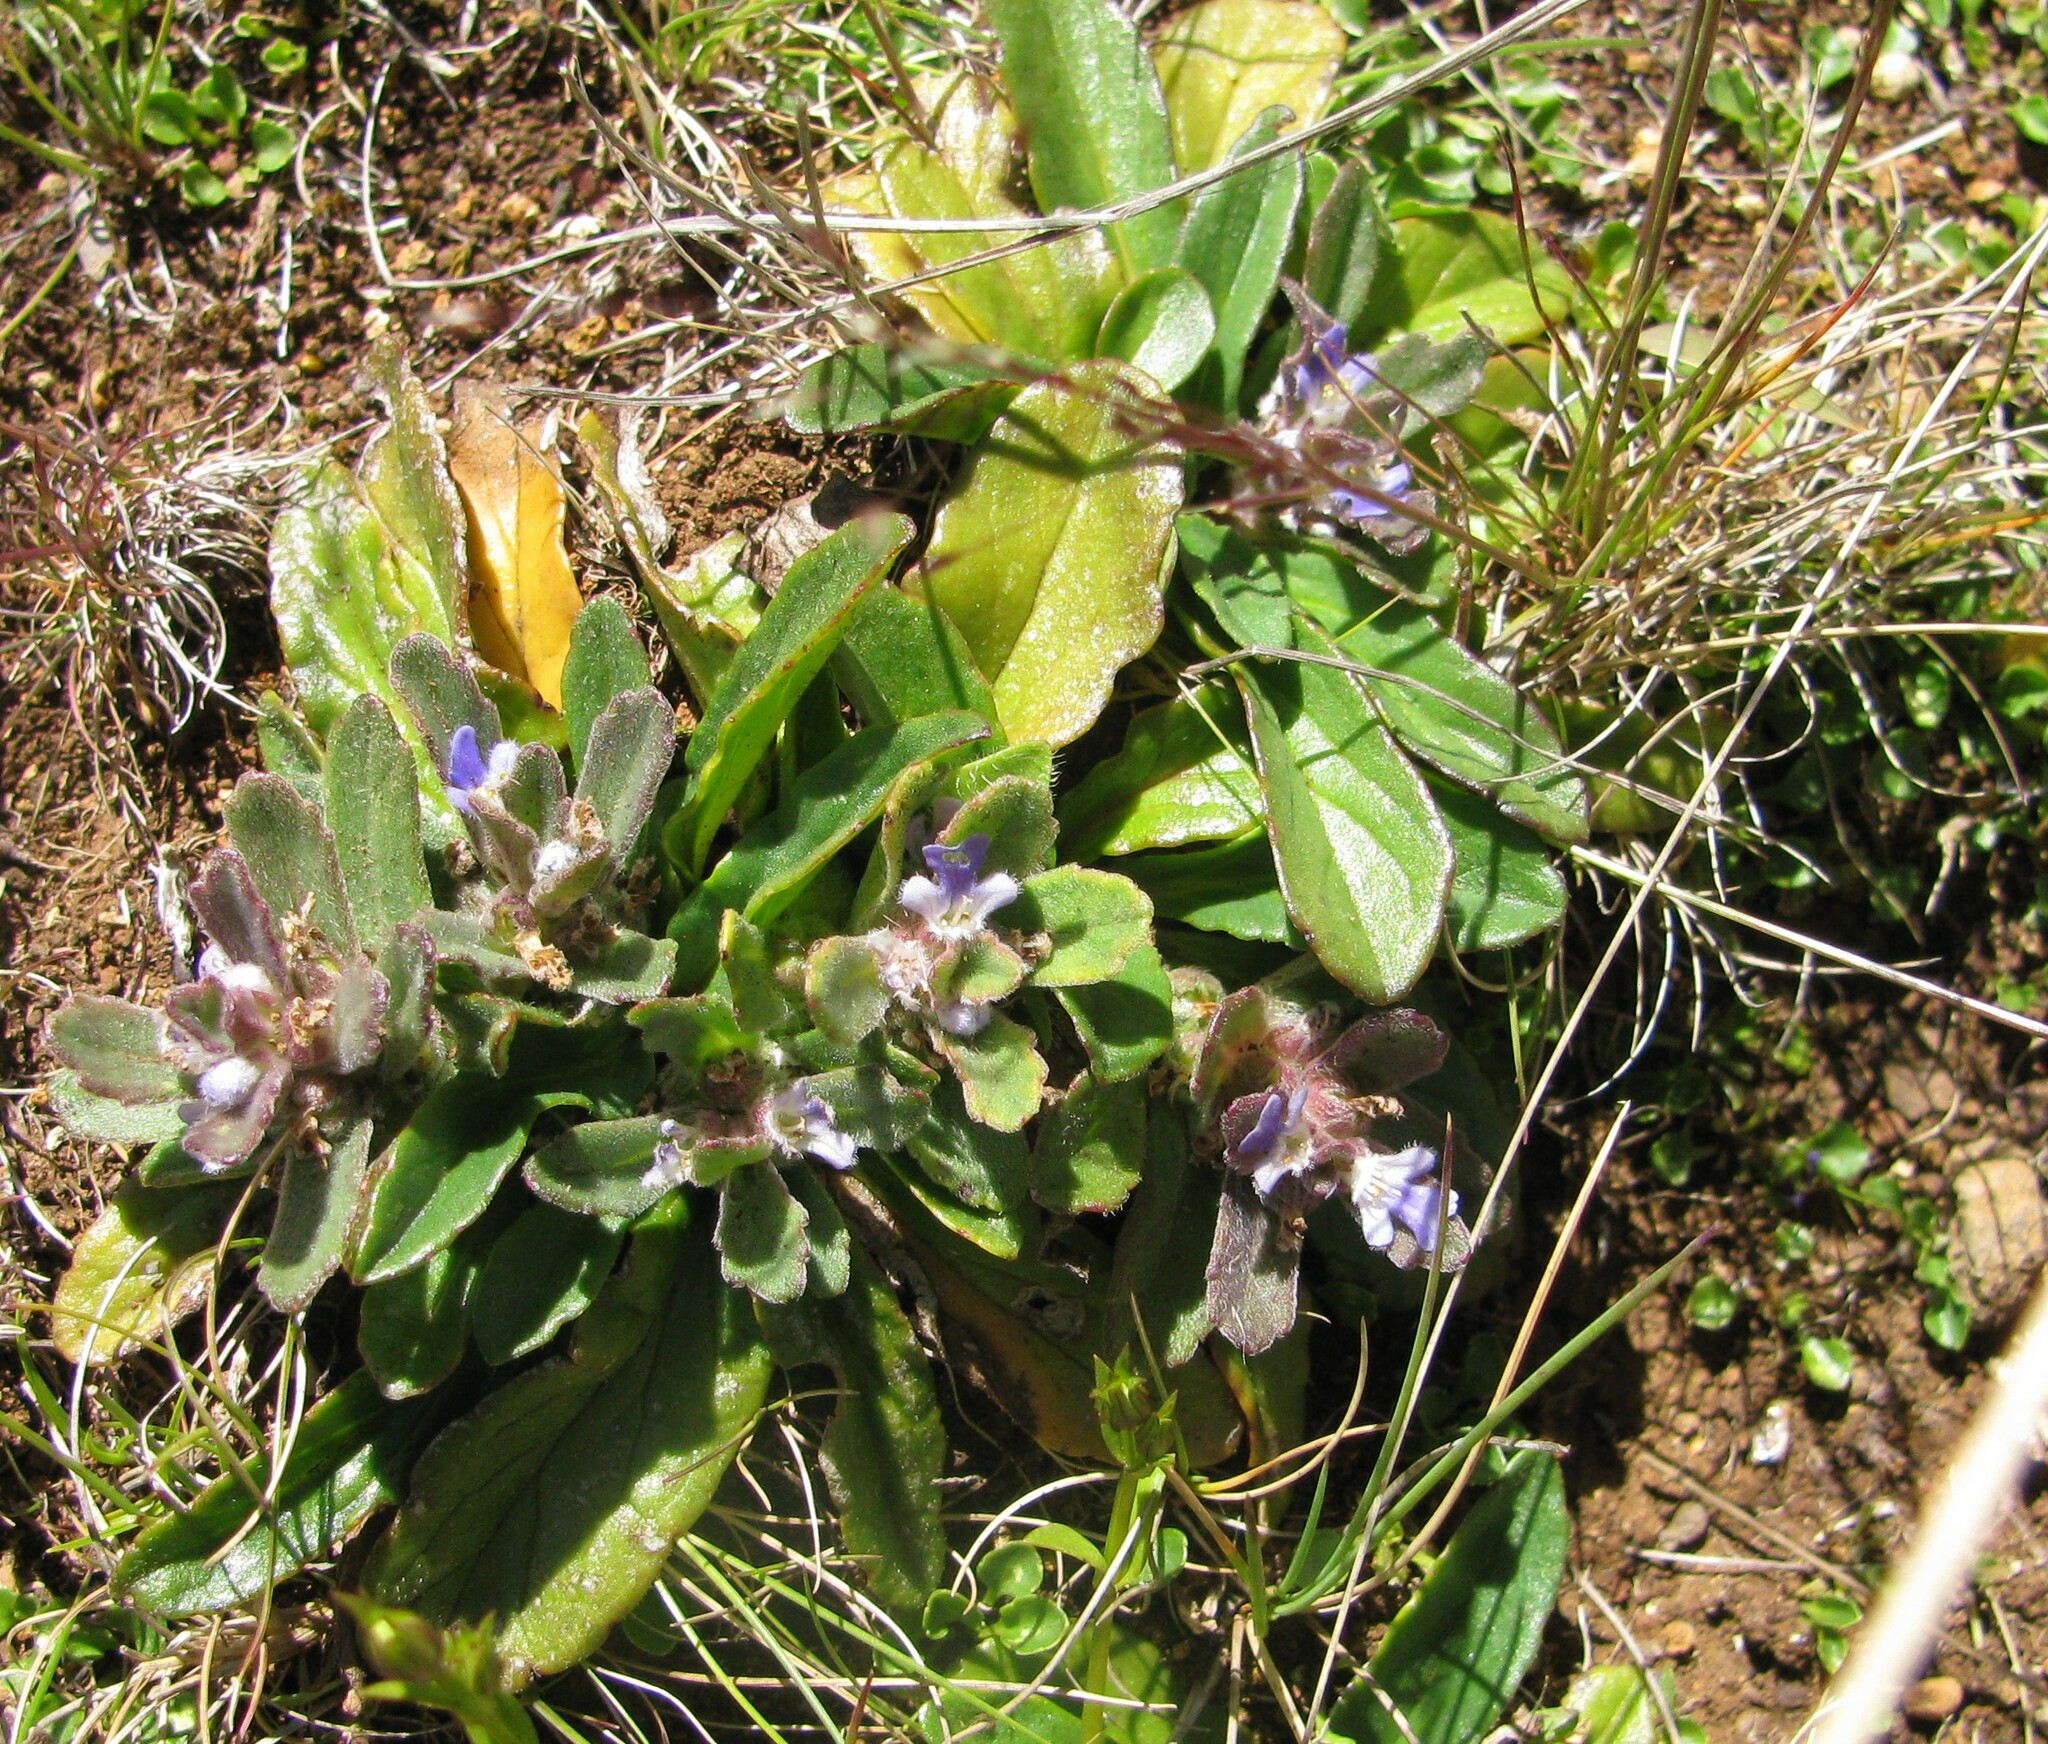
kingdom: Plantae
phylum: Tracheophyta
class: Magnoliopsida
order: Lamiales
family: Lamiaceae
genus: Ajuga
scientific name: Ajuga australis
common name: Australian bugle
